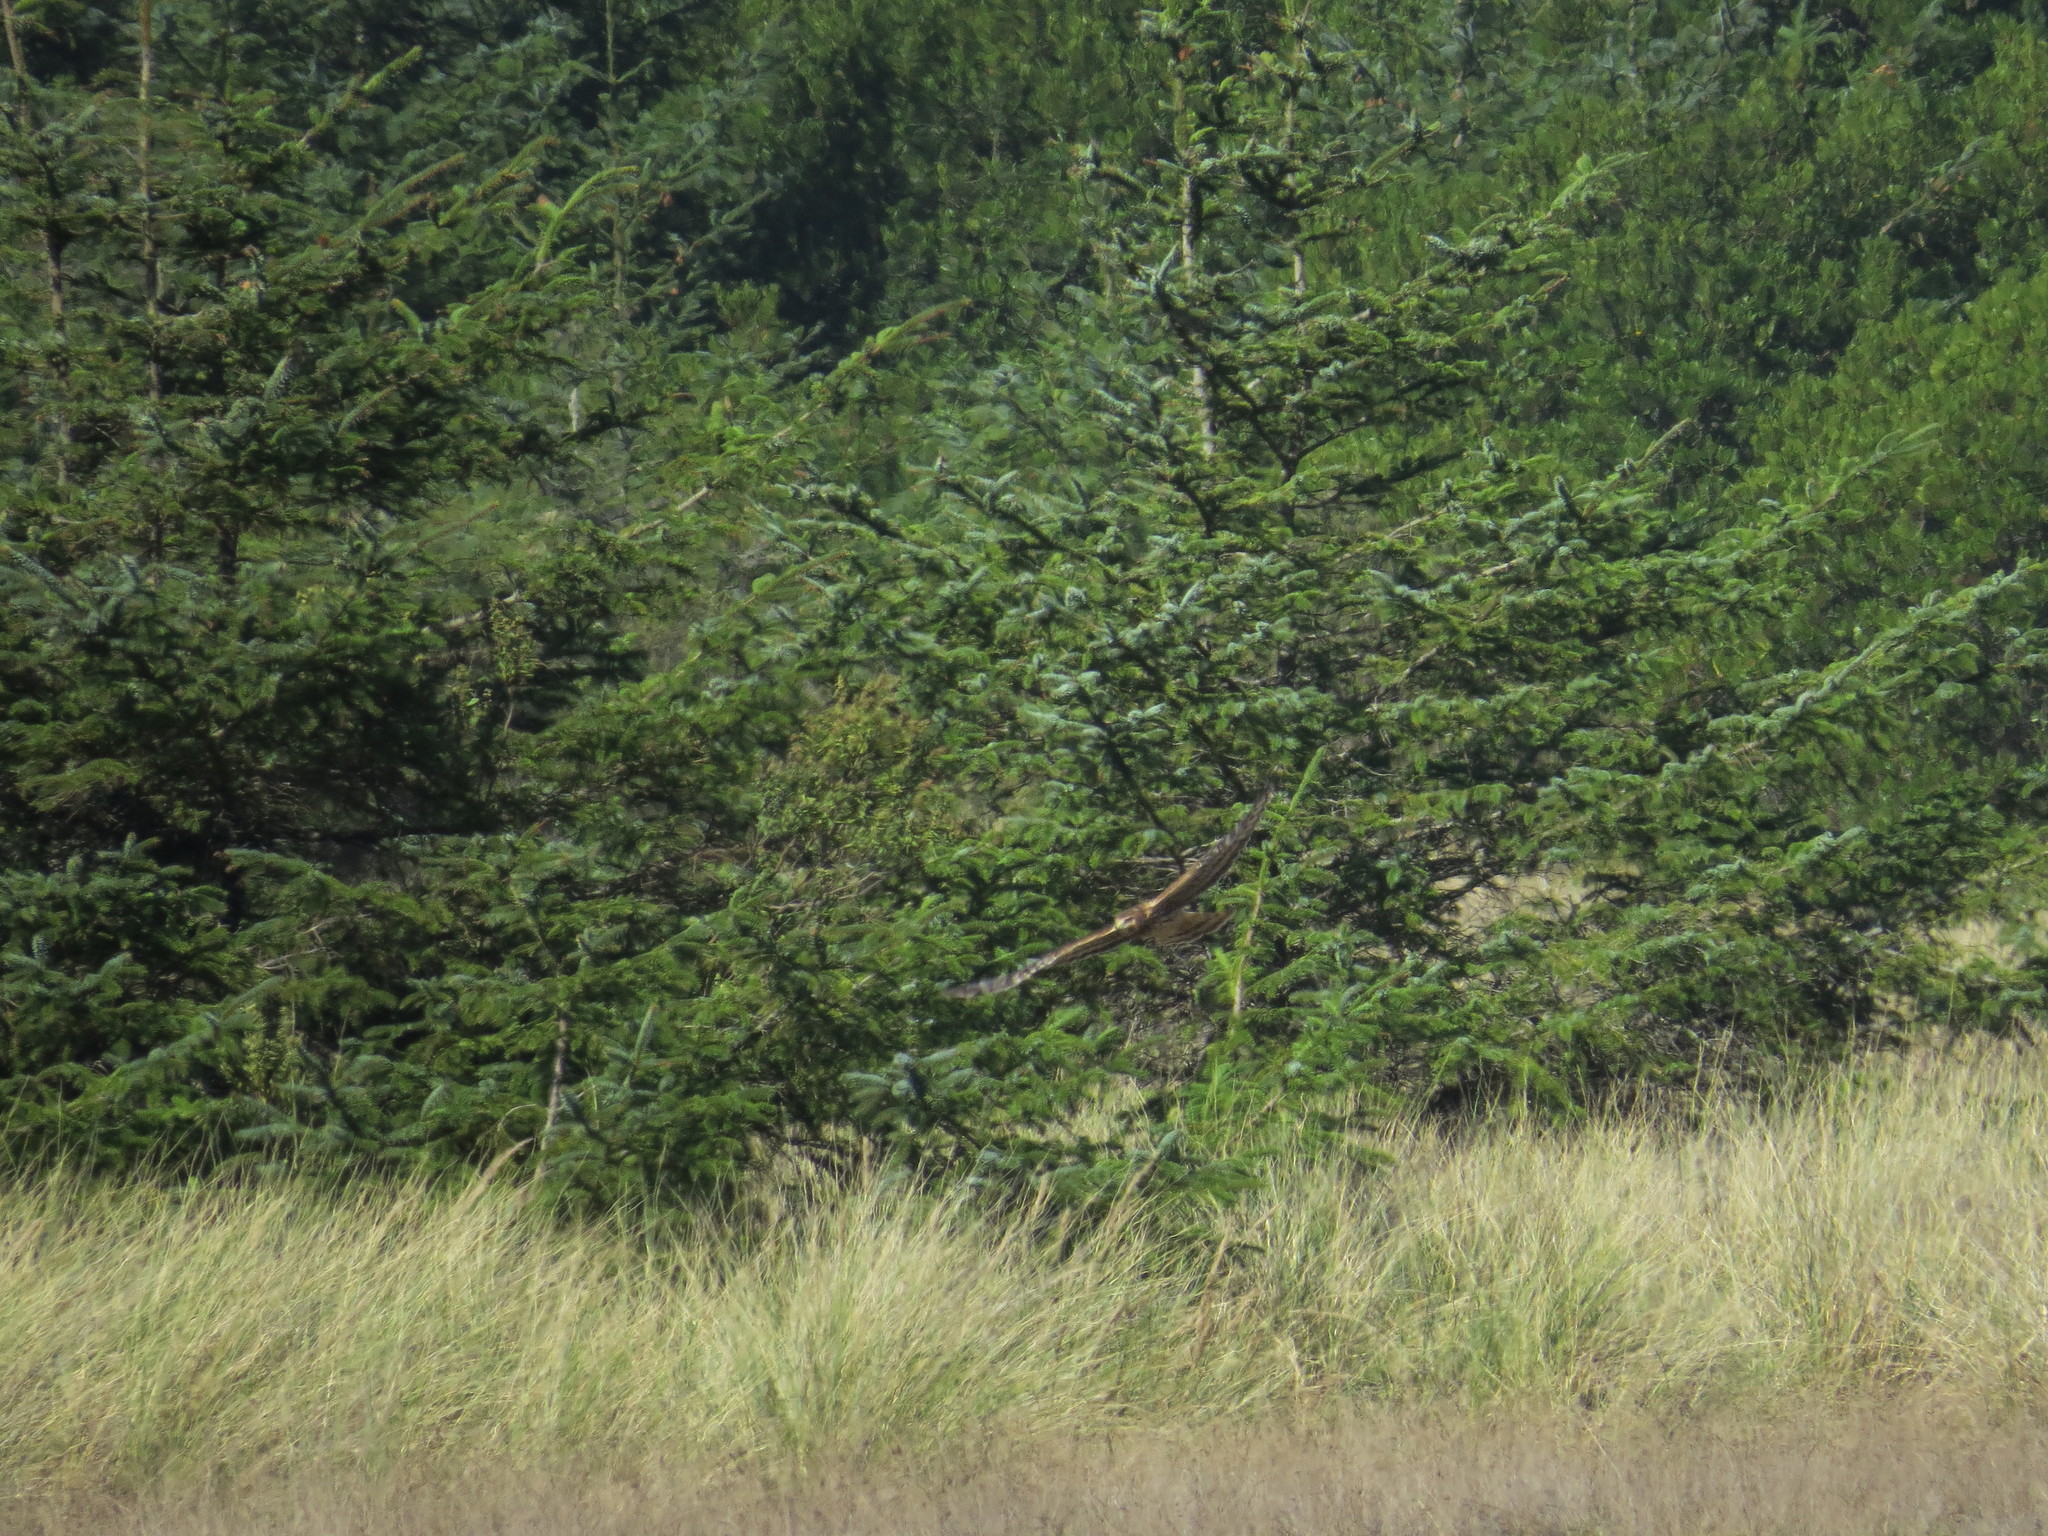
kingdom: Animalia
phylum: Chordata
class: Aves
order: Accipitriformes
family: Accipitridae
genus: Circus
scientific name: Circus cyaneus
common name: Hen harrier
